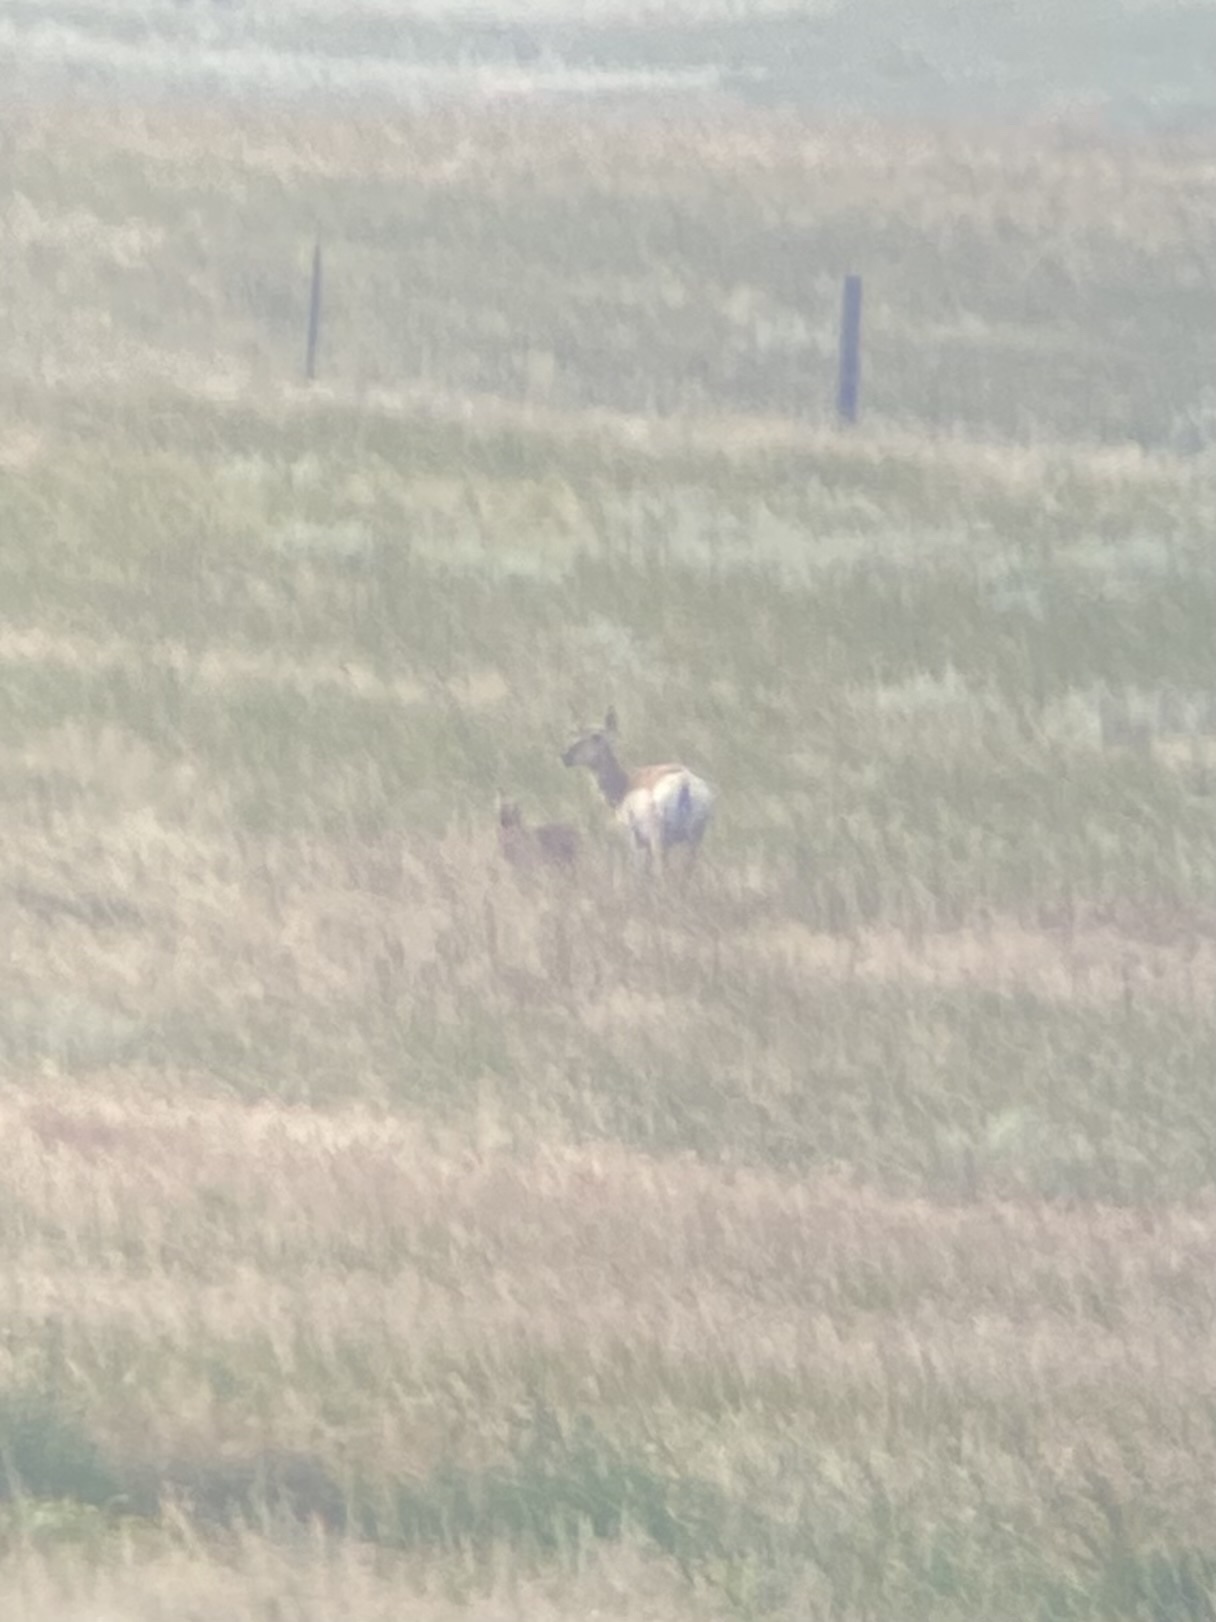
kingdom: Animalia
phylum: Chordata
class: Mammalia
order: Artiodactyla
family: Antilocapridae
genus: Antilocapra
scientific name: Antilocapra americana
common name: Pronghorn
